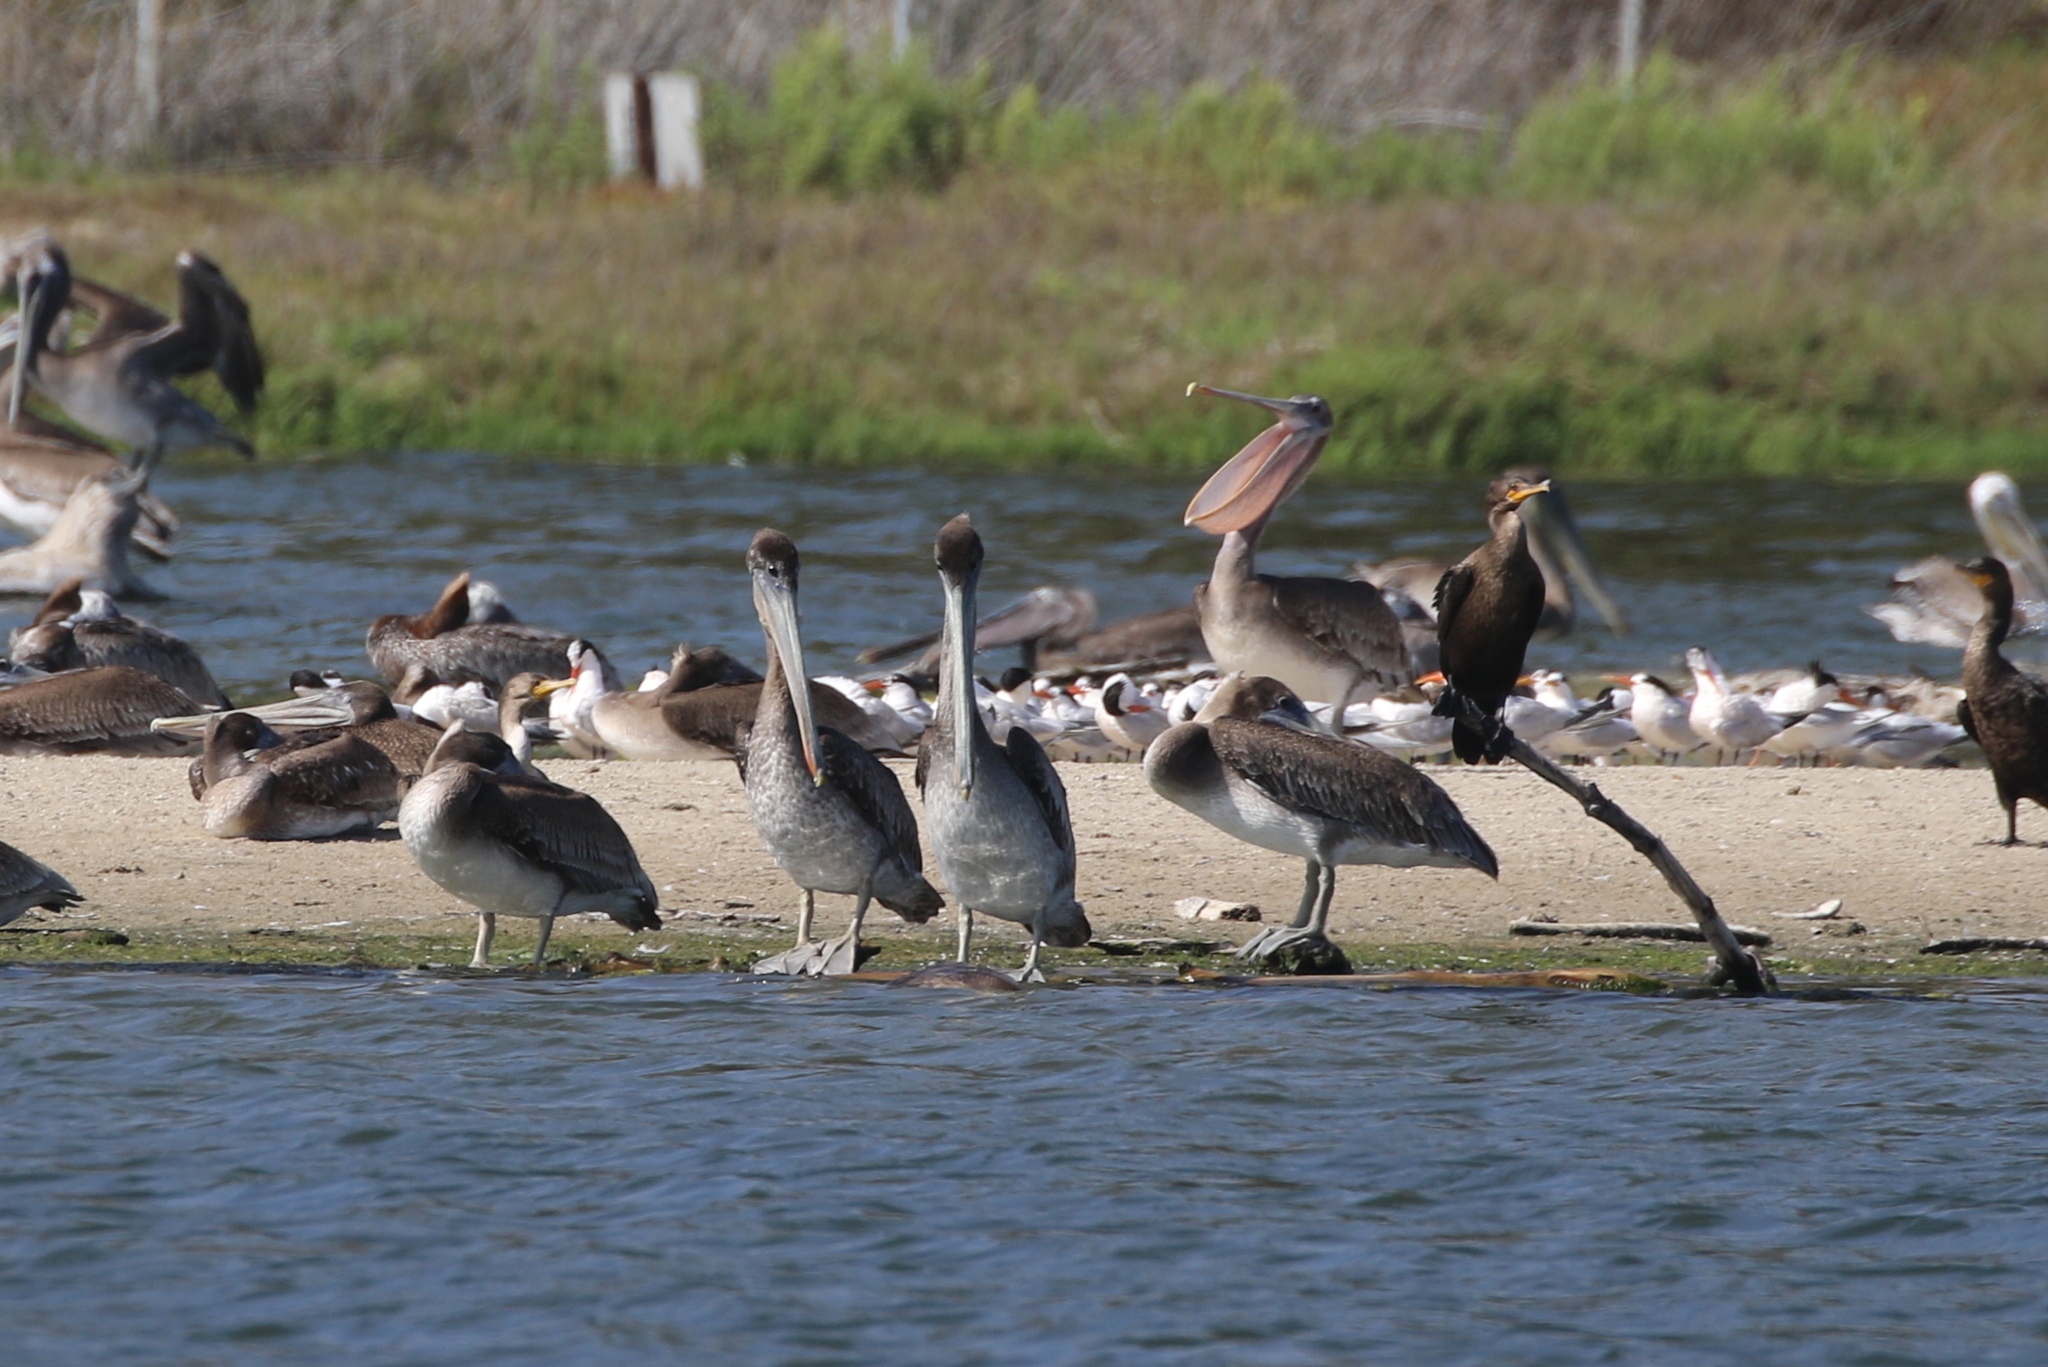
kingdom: Animalia
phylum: Chordata
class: Aves
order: Pelecaniformes
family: Pelecanidae
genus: Pelecanus
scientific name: Pelecanus occidentalis
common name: Brown pelican
